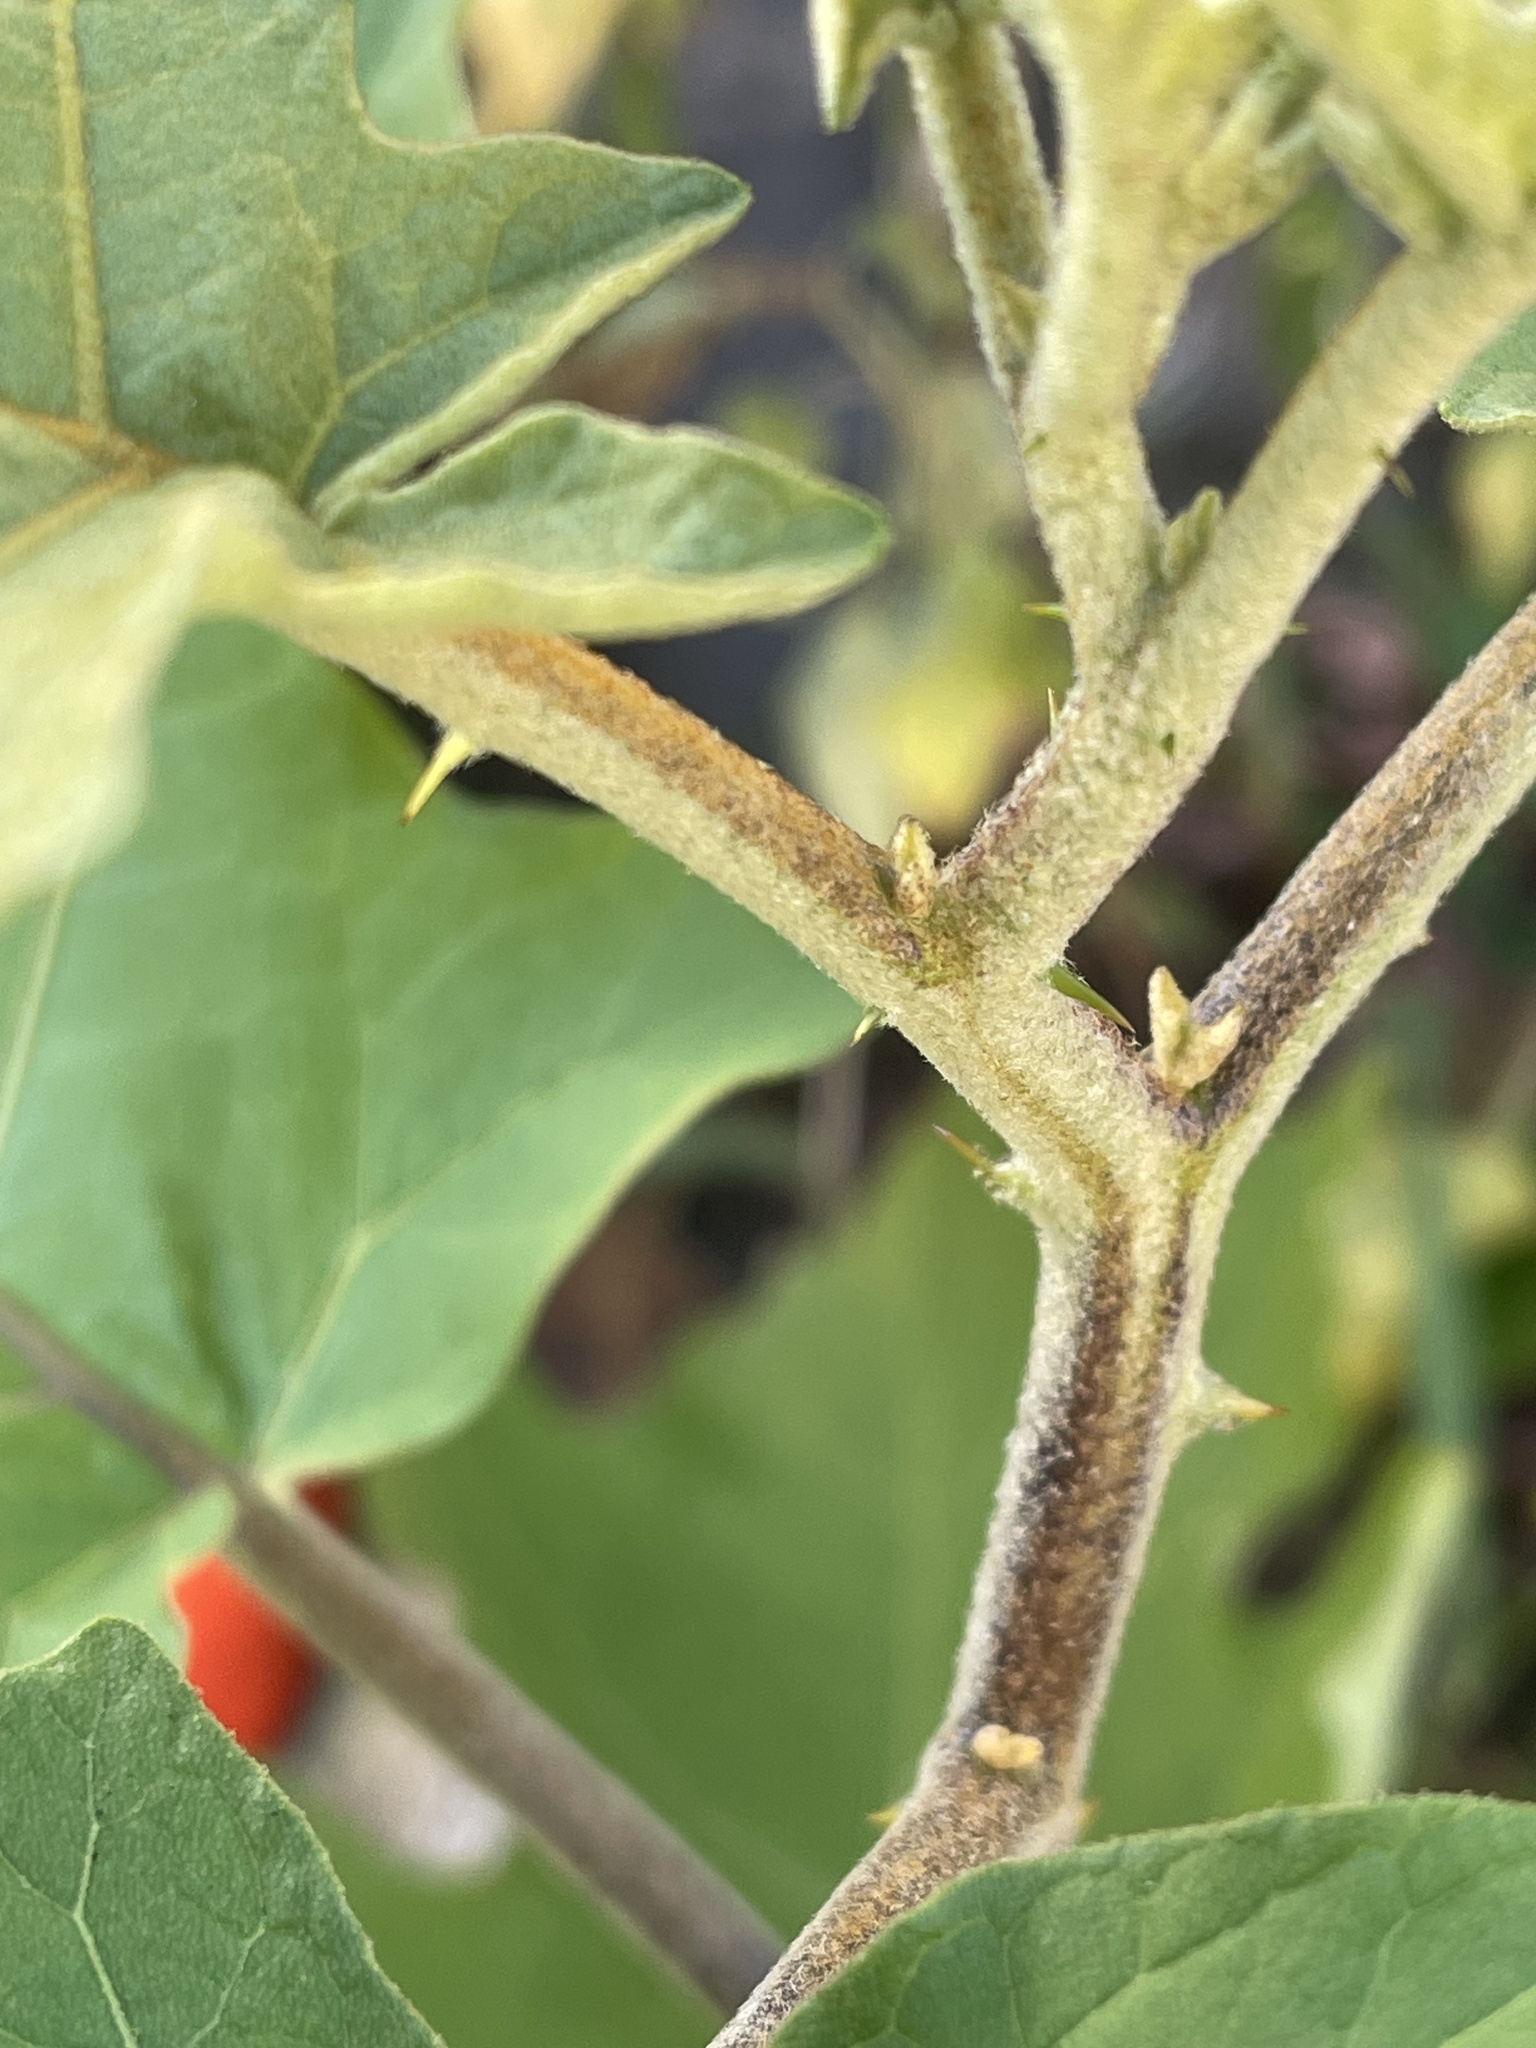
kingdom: Plantae
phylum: Tracheophyta
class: Magnoliopsida
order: Solanales
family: Solanaceae
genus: Solanum
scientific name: Solanum torvum
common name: Turkey berry
